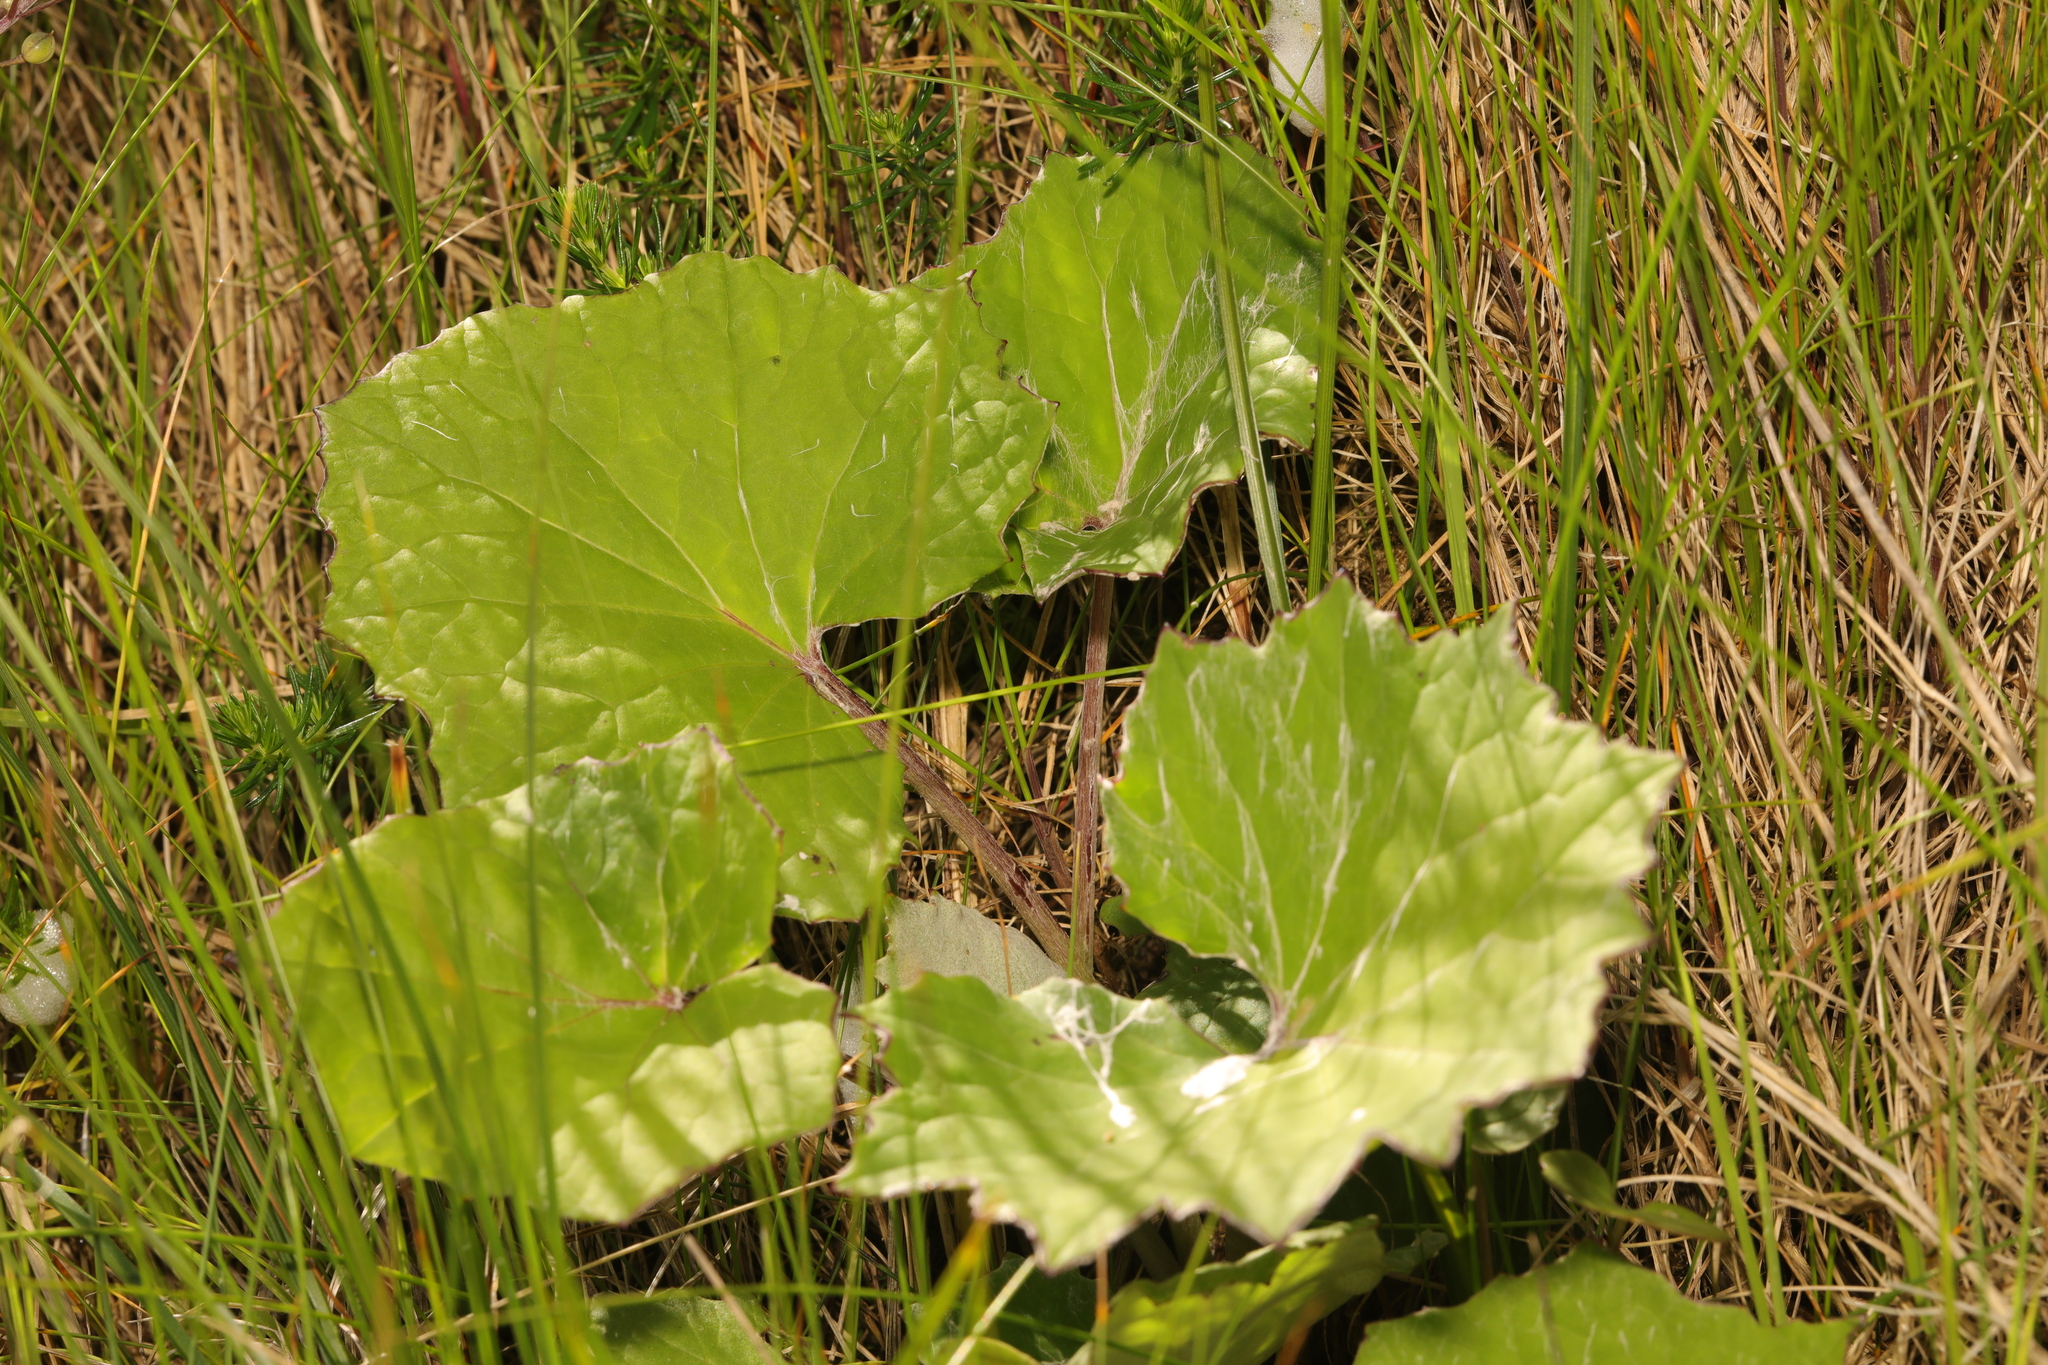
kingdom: Plantae
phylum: Tracheophyta
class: Magnoliopsida
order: Asterales
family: Asteraceae
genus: Tussilago
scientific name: Tussilago farfara
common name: Coltsfoot
